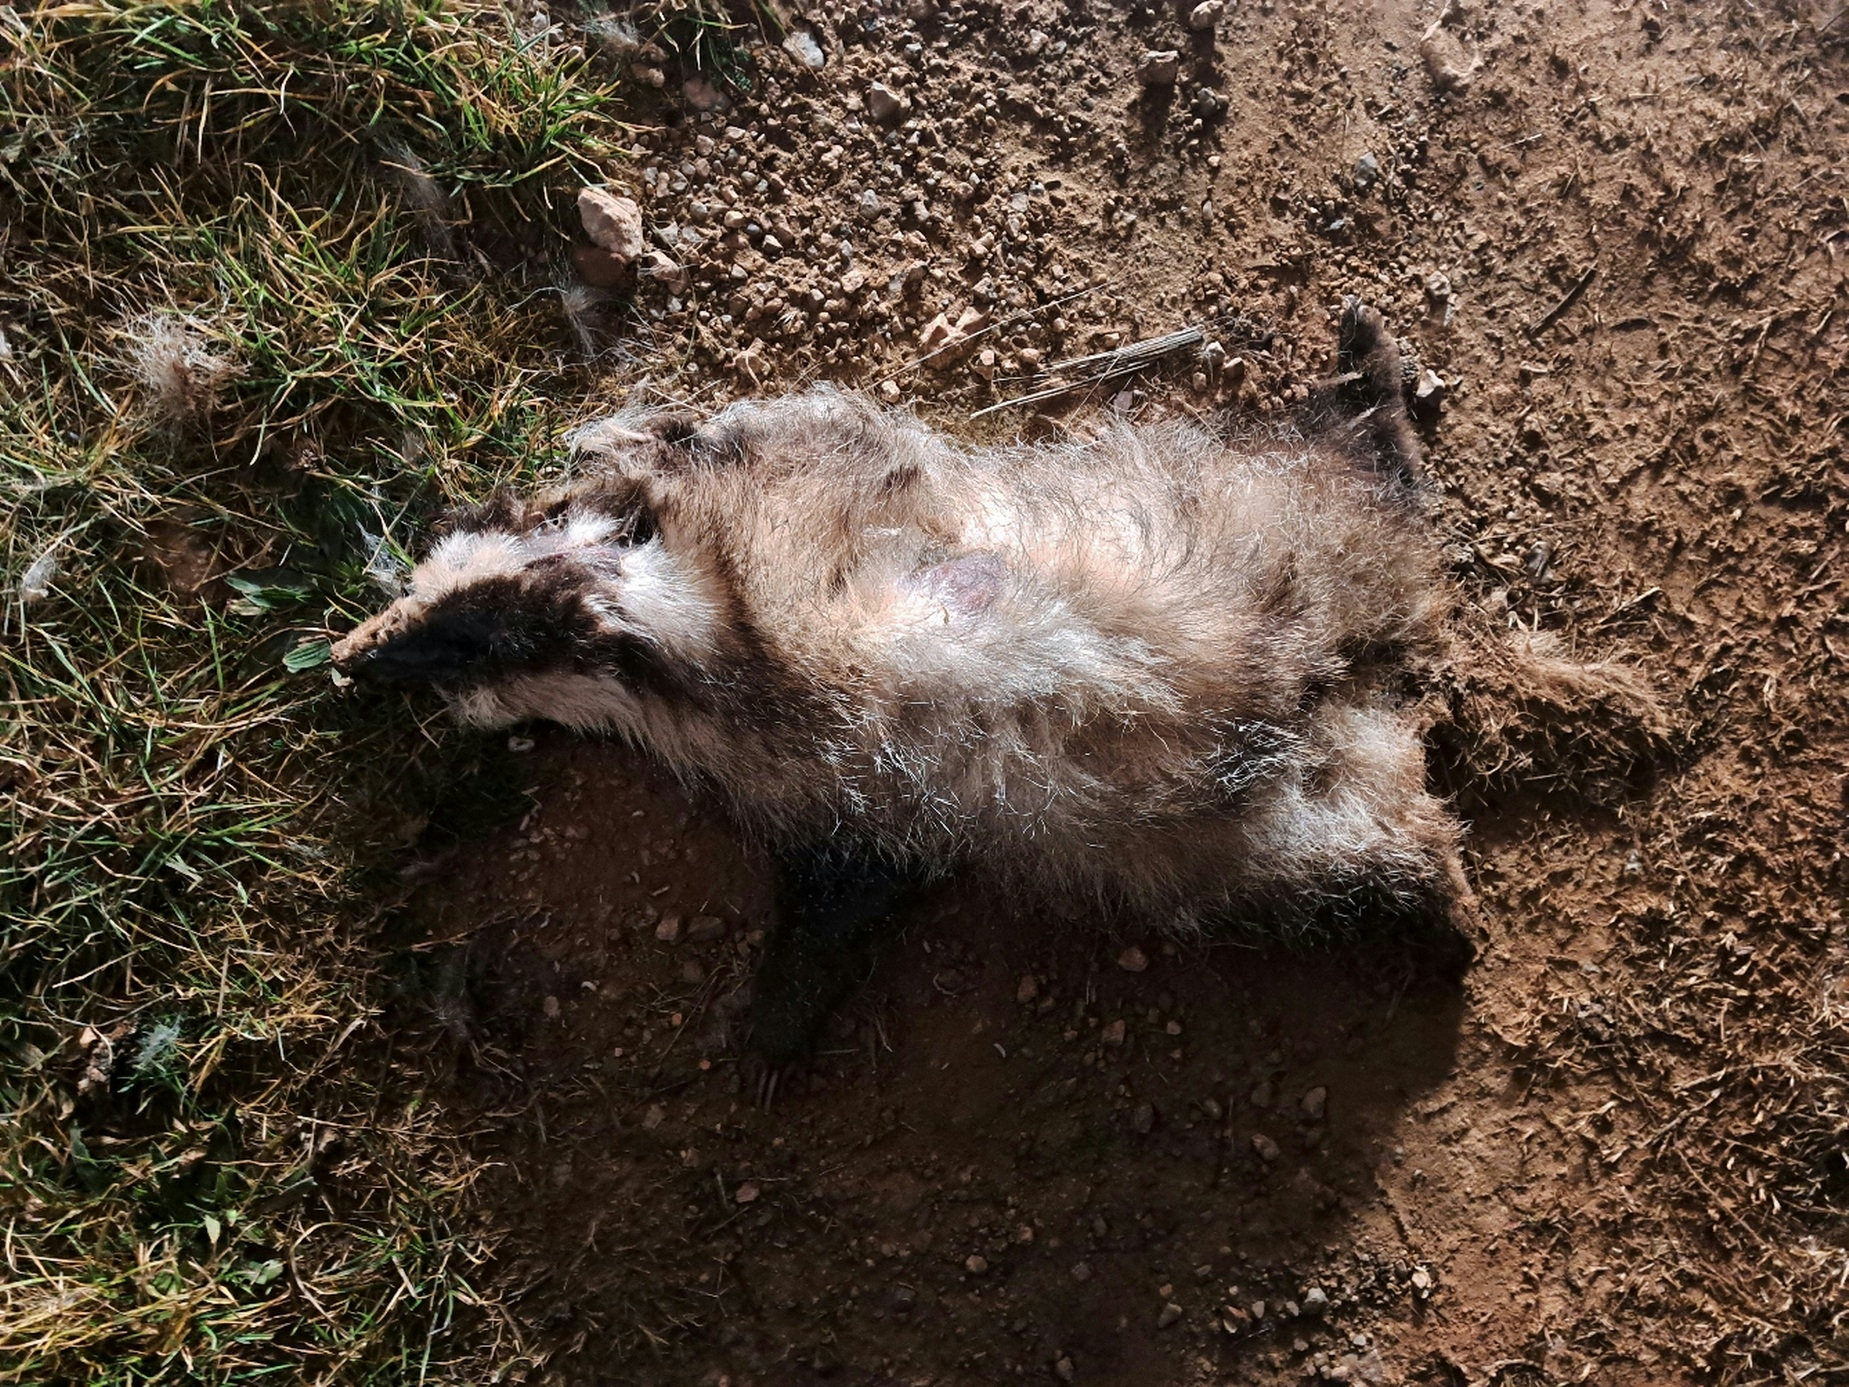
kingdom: Animalia
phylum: Chordata
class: Mammalia
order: Carnivora
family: Mustelidae
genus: Meles
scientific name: Meles meles
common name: Eurasian badger
